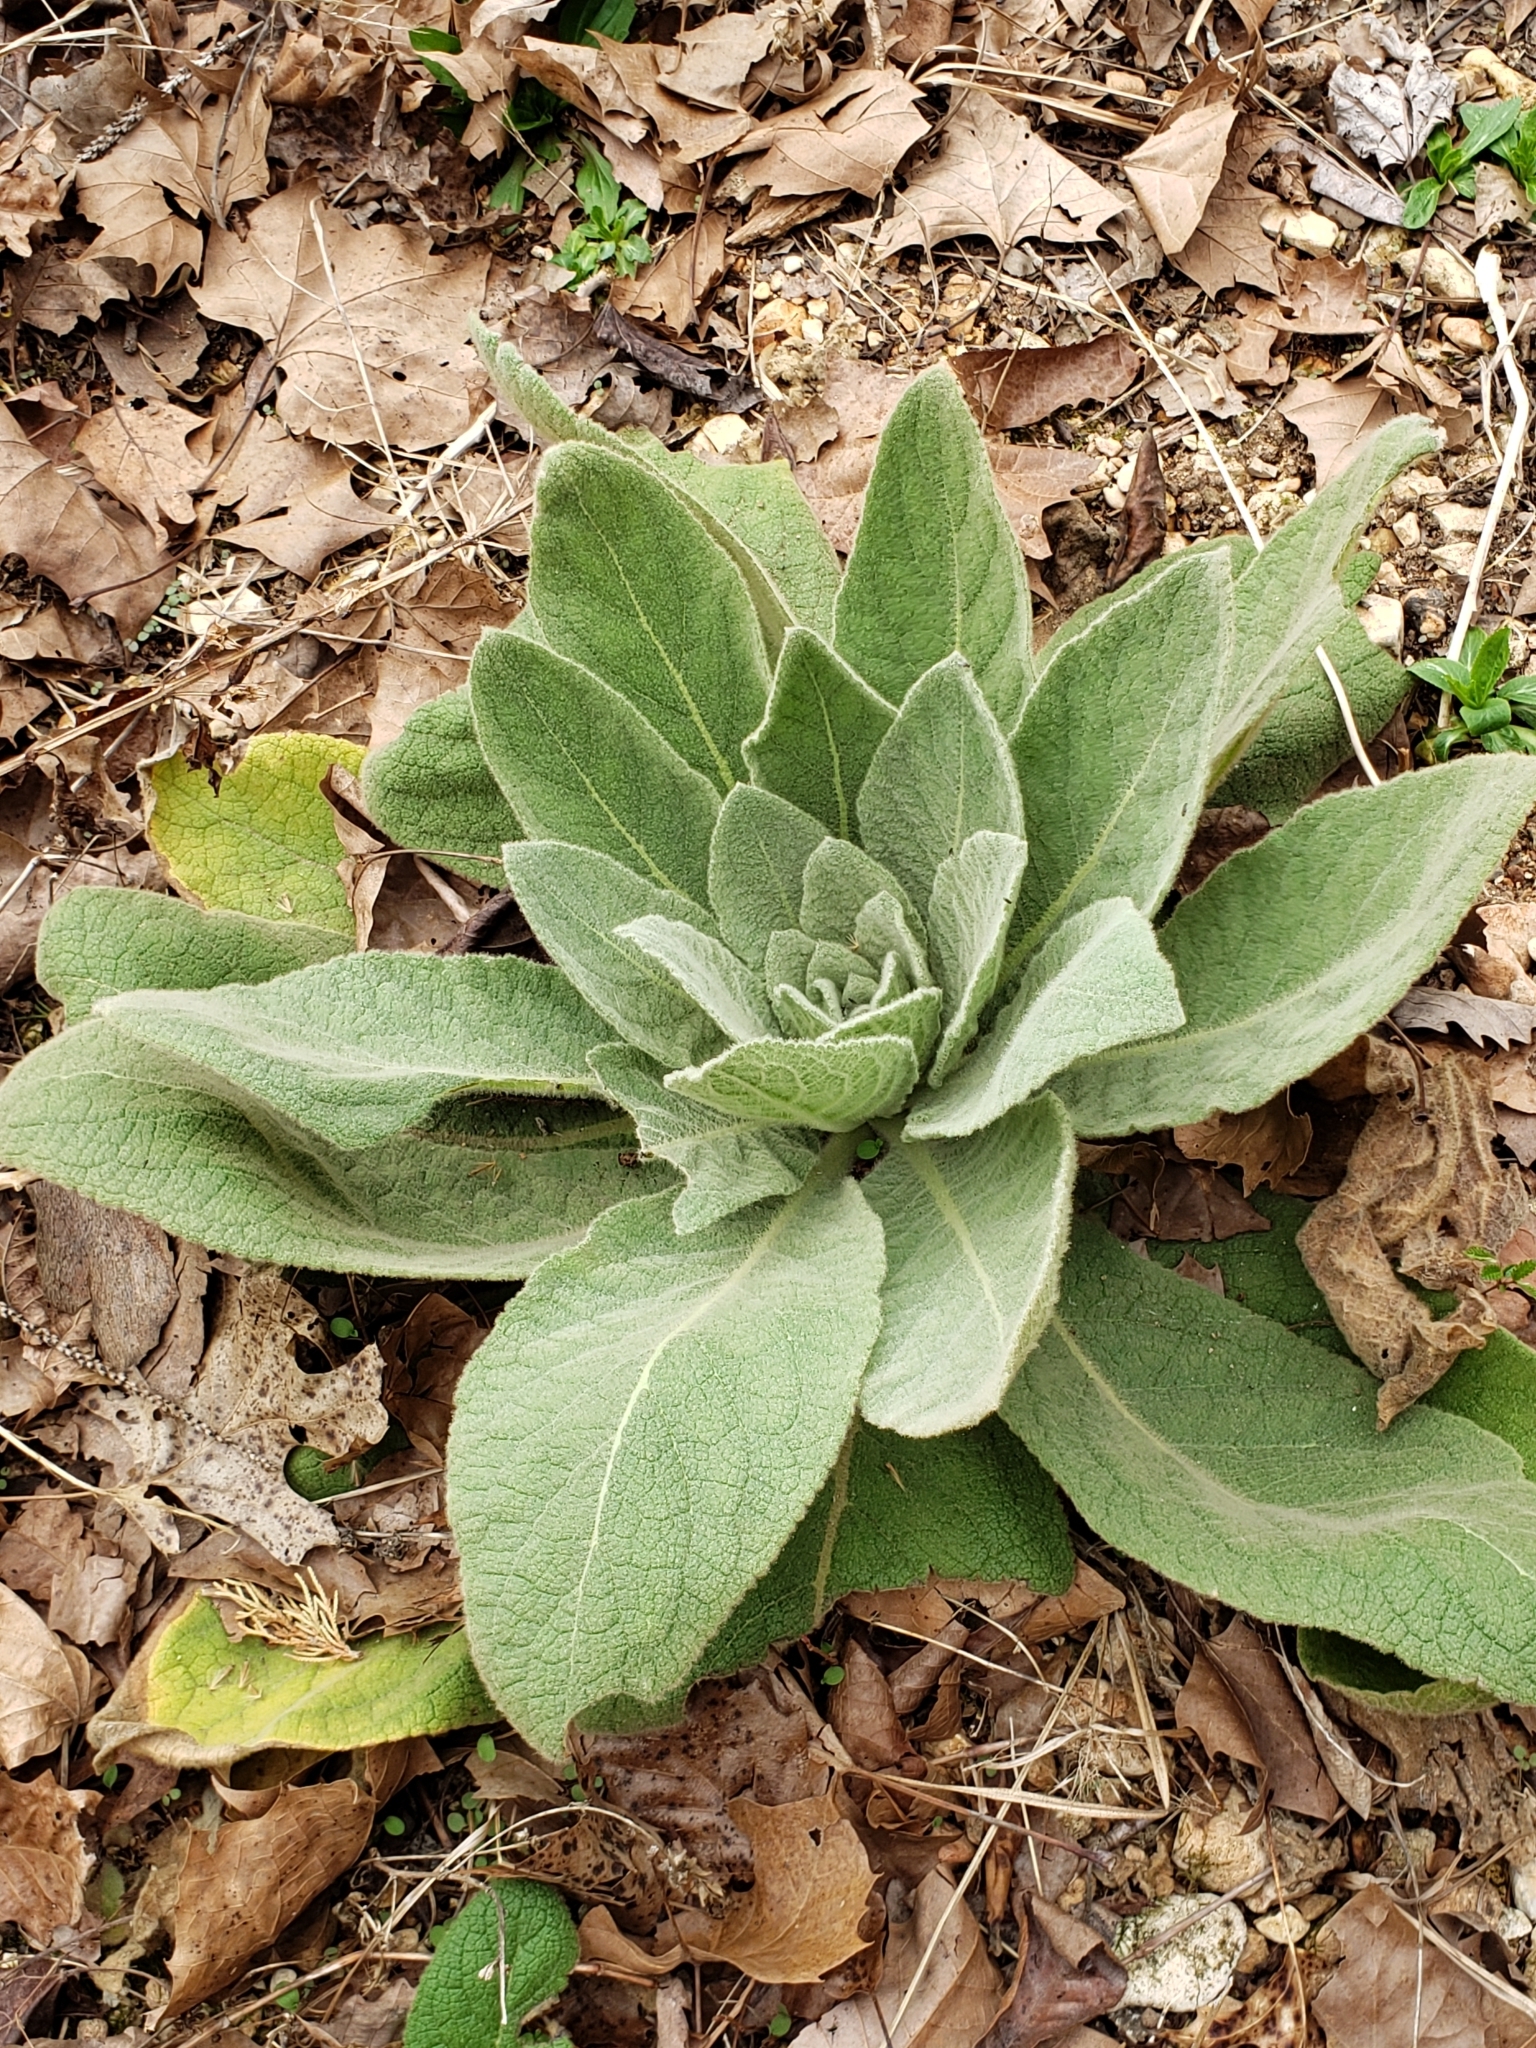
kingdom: Plantae
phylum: Tracheophyta
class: Magnoliopsida
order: Lamiales
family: Scrophulariaceae
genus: Verbascum
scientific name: Verbascum thapsus
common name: Common mullein
